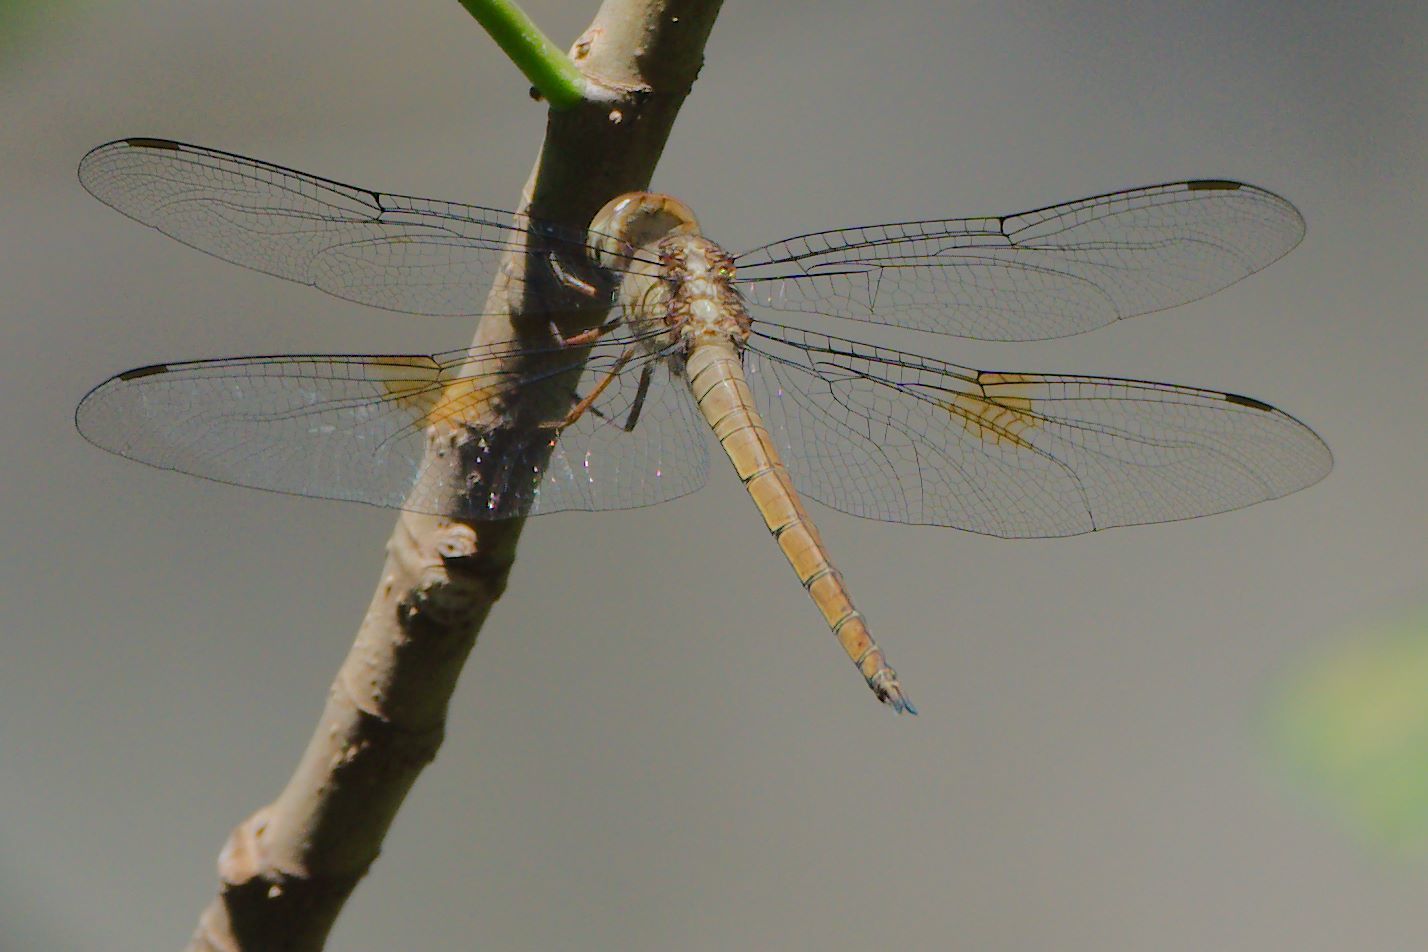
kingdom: Animalia
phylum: Arthropoda
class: Insecta
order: Odonata
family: Libellulidae
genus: Tholymis
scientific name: Tholymis citrina
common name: Evening skimmer
